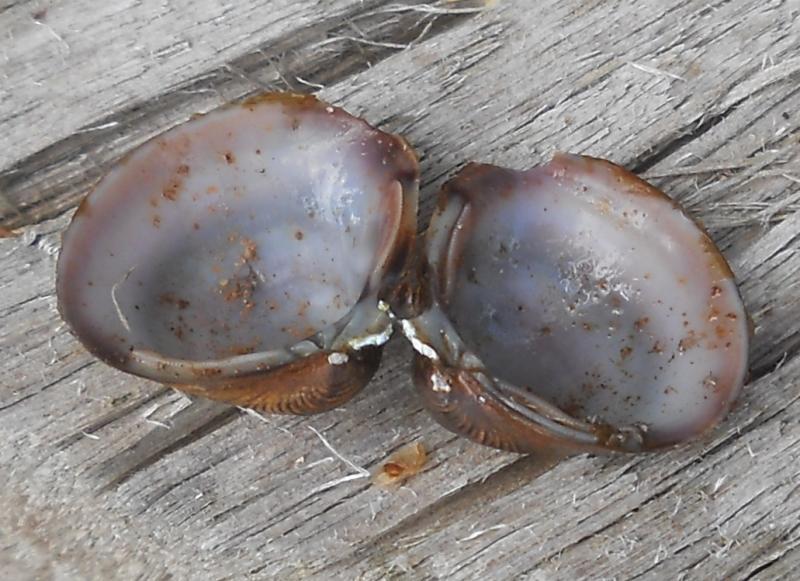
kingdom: Animalia
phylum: Mollusca
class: Bivalvia
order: Venerida
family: Cyrenidae
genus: Corbicula
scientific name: Corbicula fluminea
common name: Asian clam
